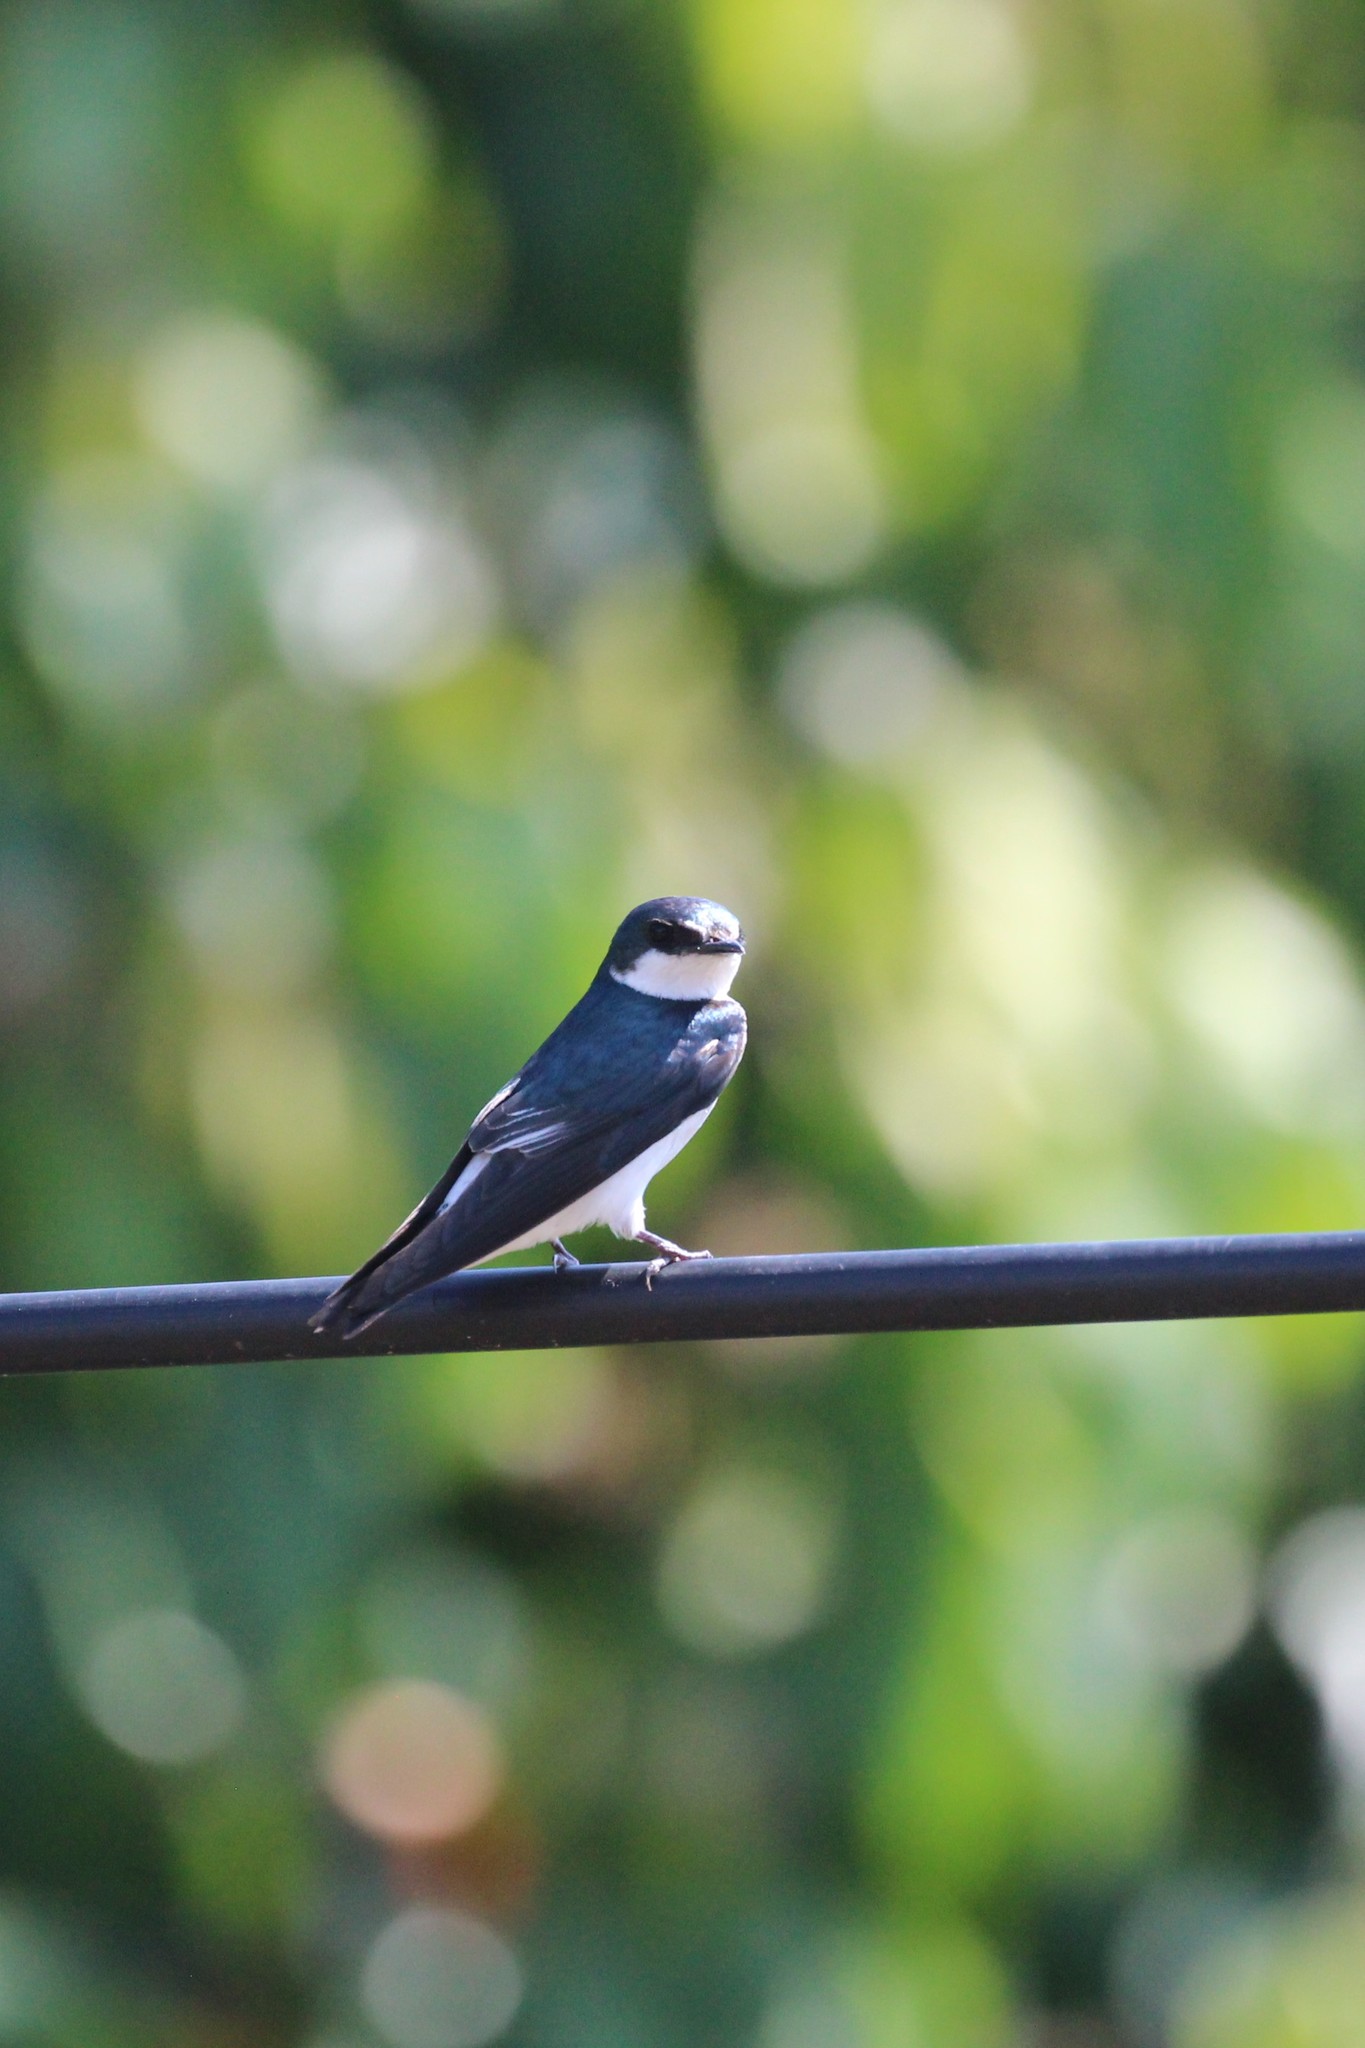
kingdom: Animalia
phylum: Chordata
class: Aves
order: Passeriformes
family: Hirundinidae
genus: Tachycineta
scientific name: Tachycineta albilinea
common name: Mangrove swallow
